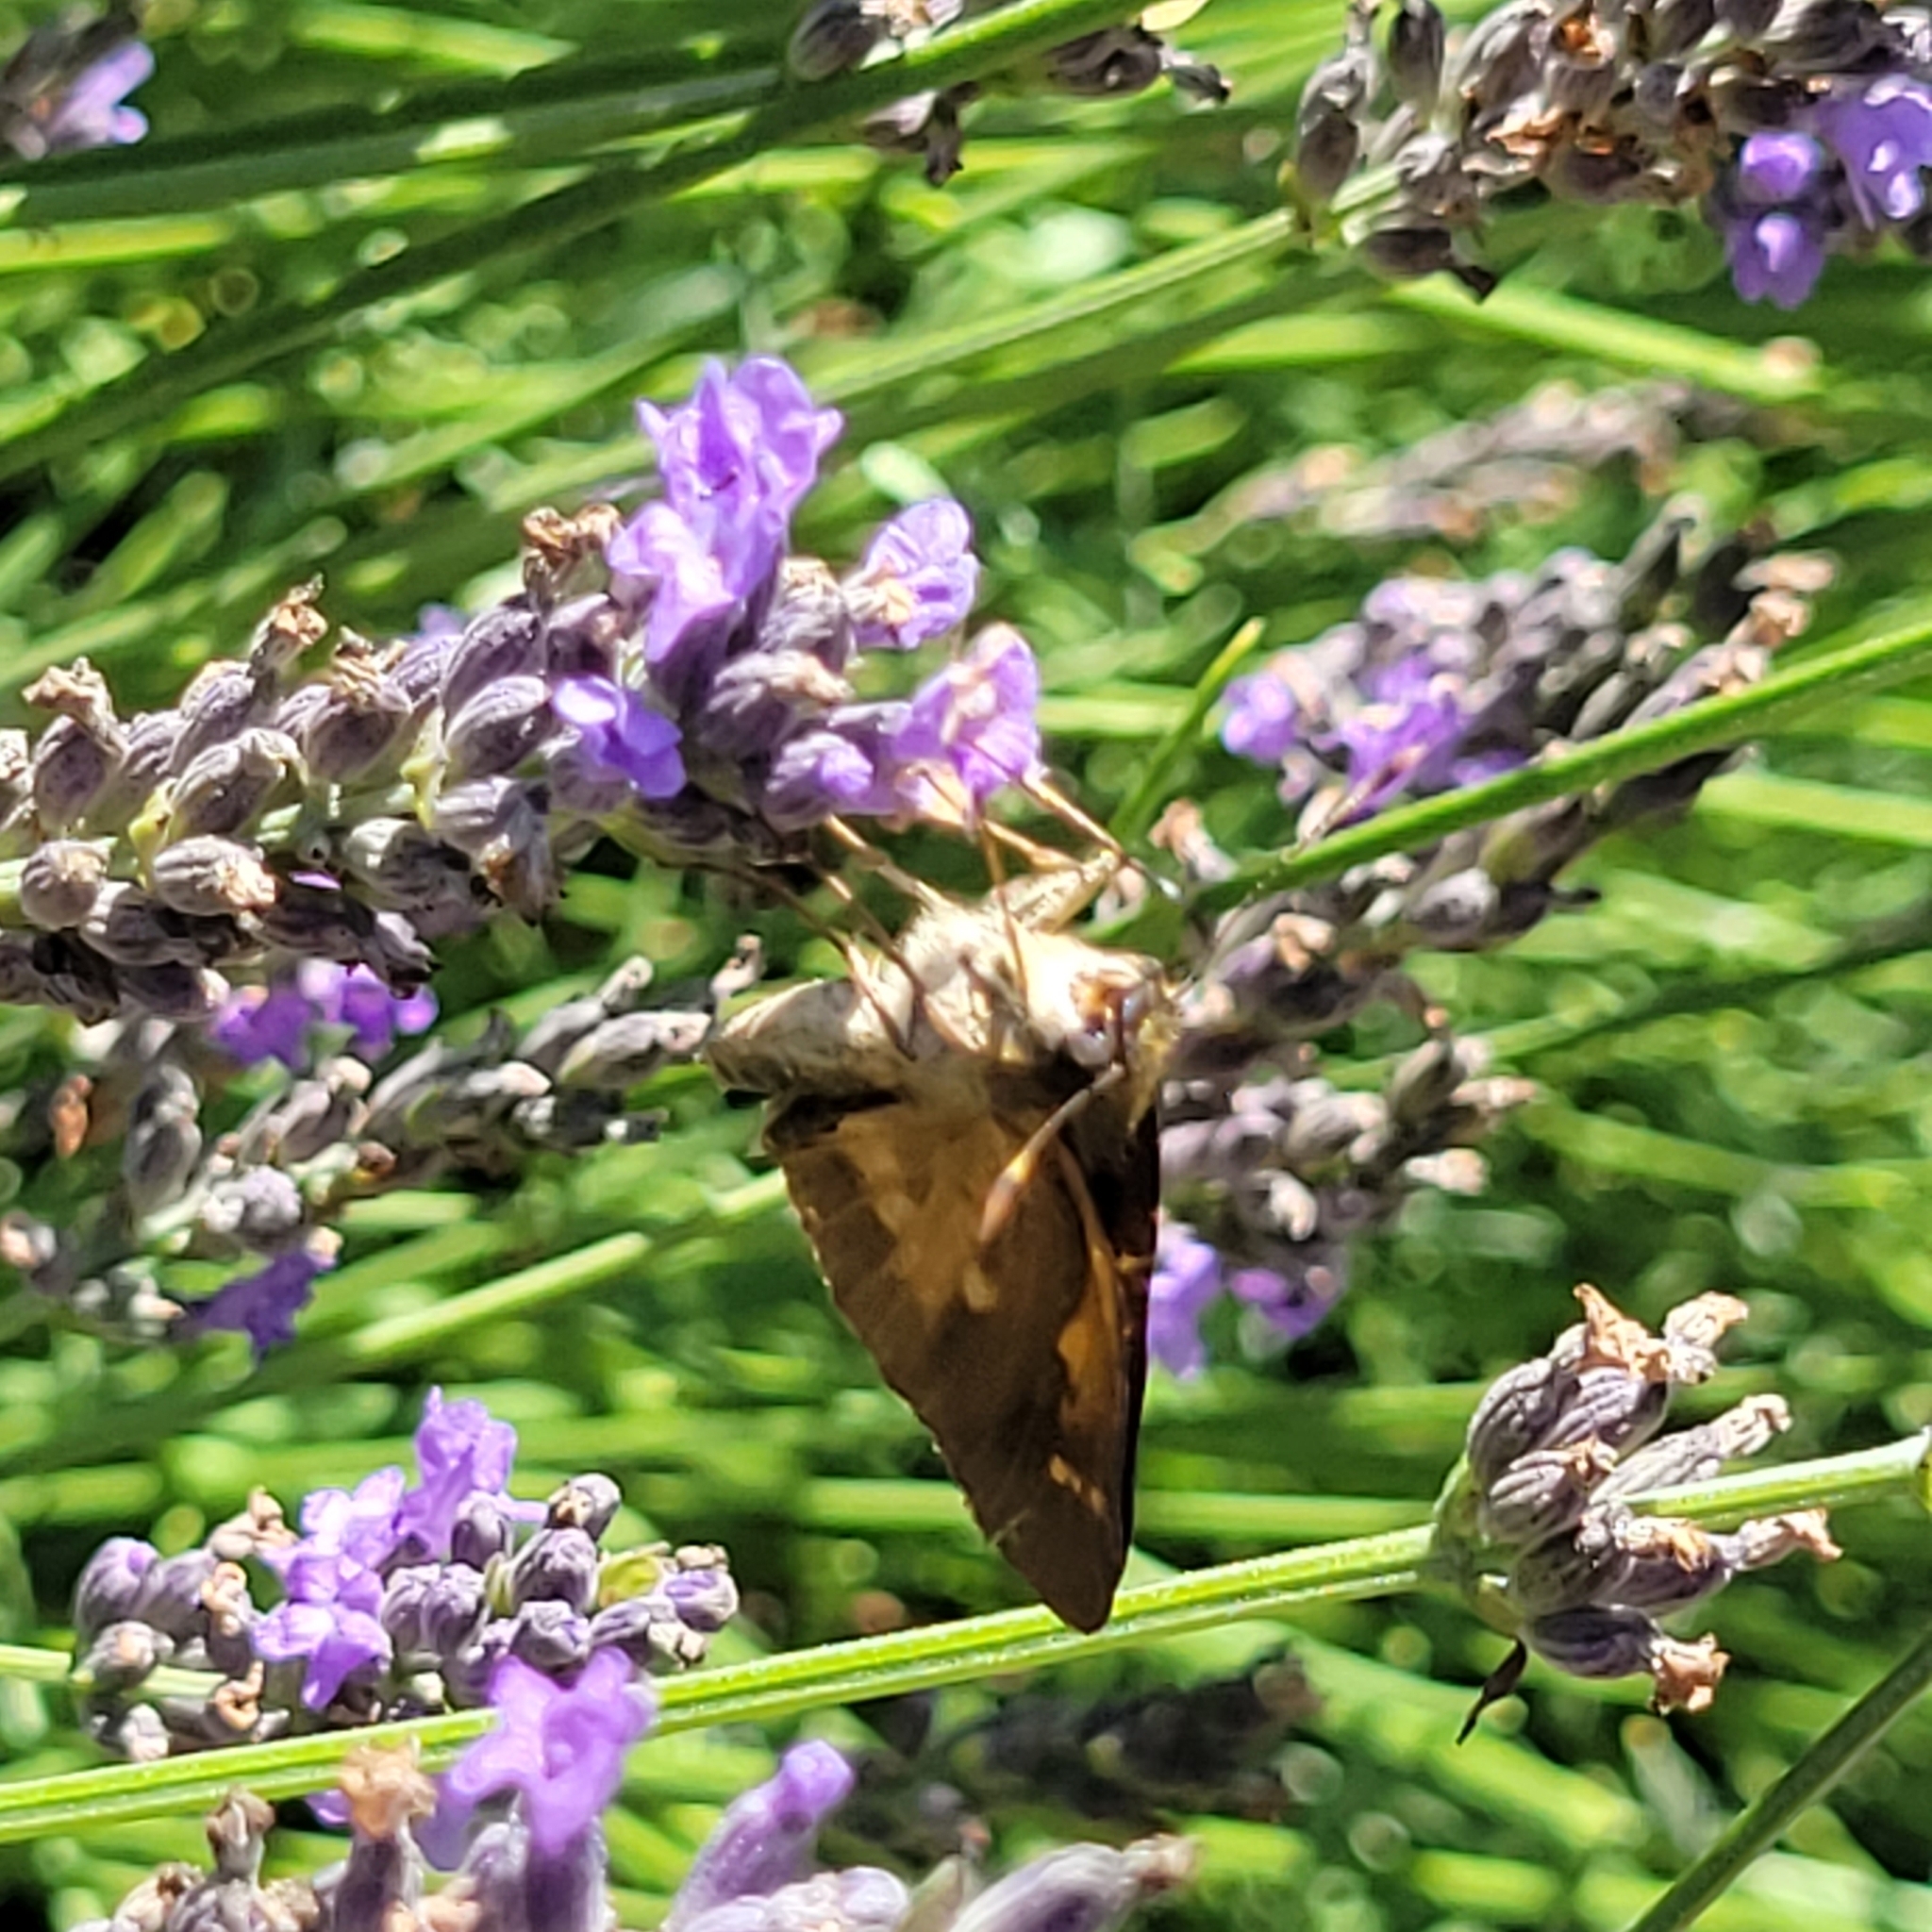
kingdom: Animalia
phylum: Arthropoda
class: Insecta
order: Lepidoptera
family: Hesperiidae
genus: Poanes
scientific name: Poanes viator
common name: Broad-winged skipper
